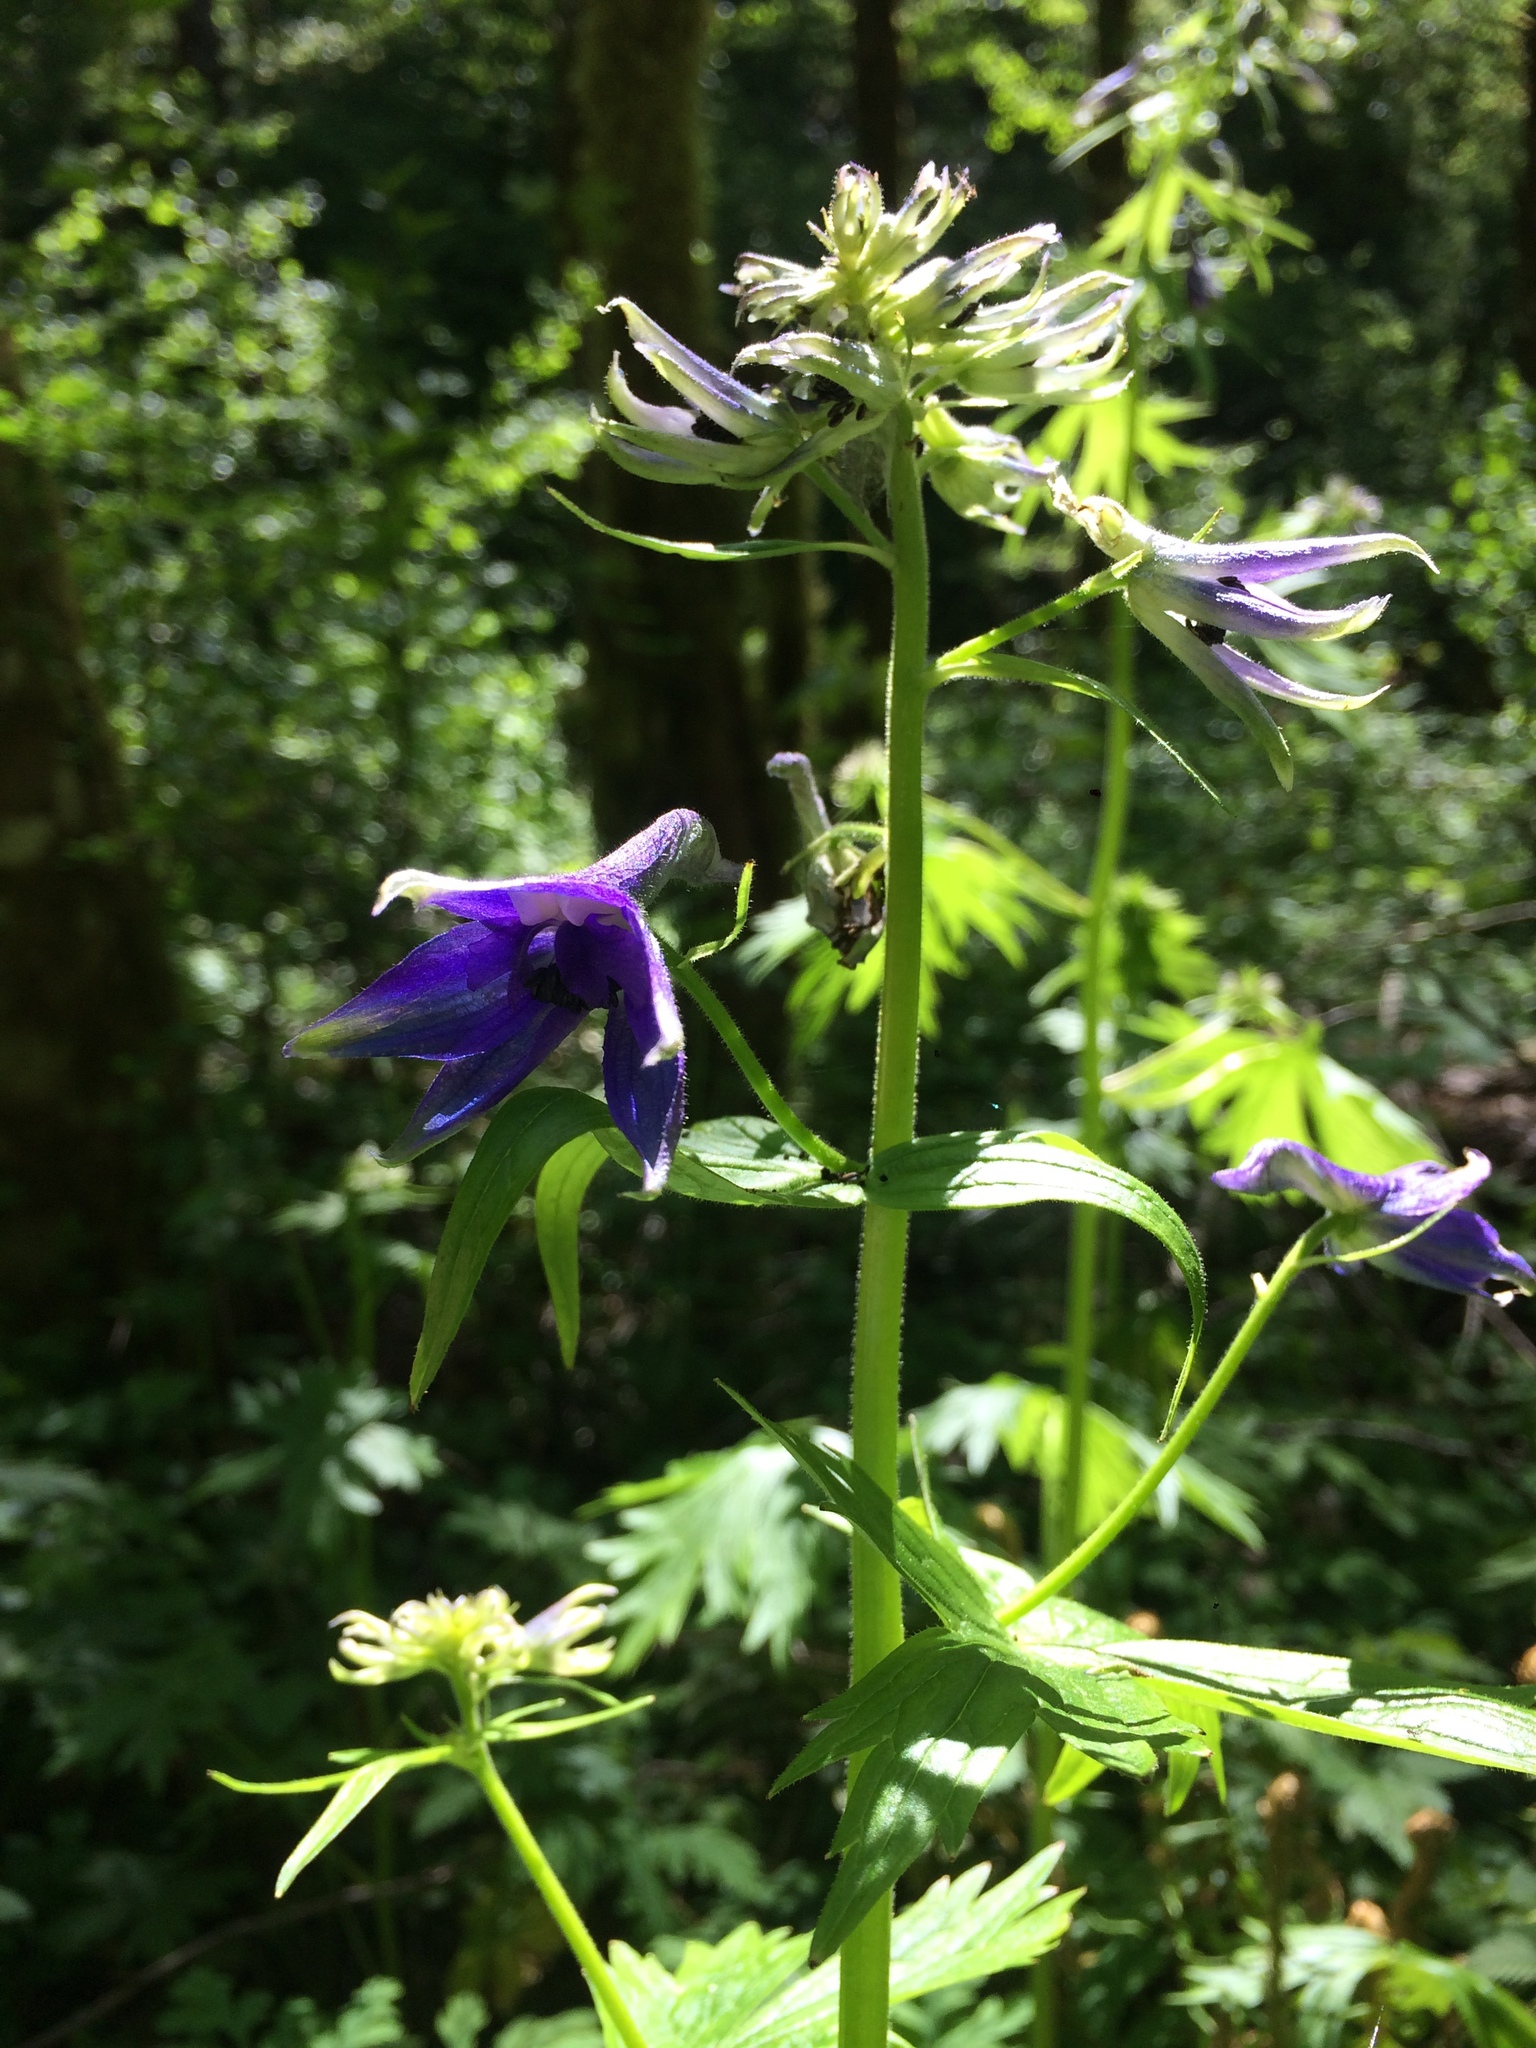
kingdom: Plantae
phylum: Tracheophyta
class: Magnoliopsida
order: Ranunculales
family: Ranunculaceae
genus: Delphinium
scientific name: Delphinium trolliifolium
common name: Cow-poison
